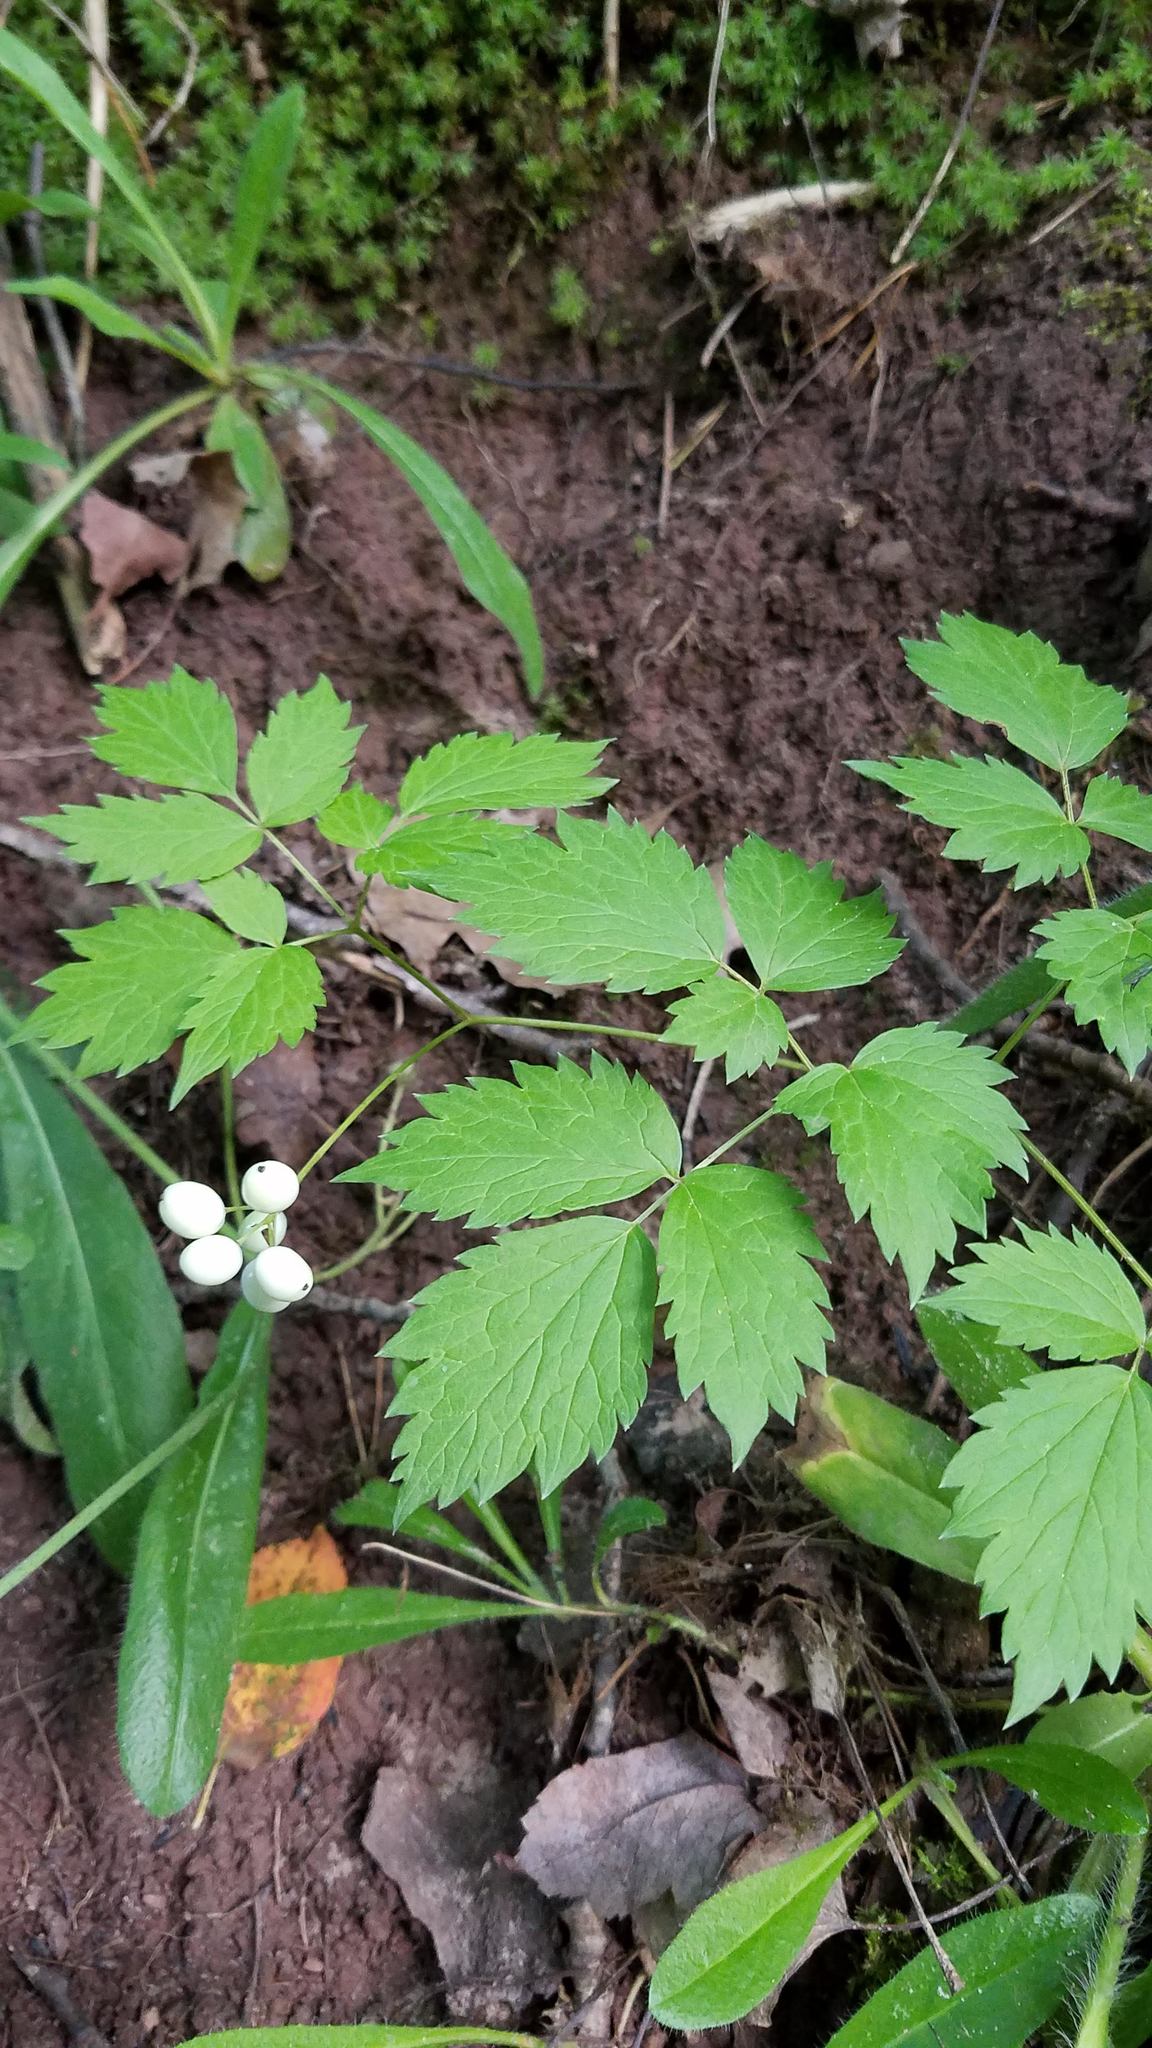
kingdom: Plantae
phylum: Tracheophyta
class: Magnoliopsida
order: Ranunculales
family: Ranunculaceae
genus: Actaea
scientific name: Actaea rubra
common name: Red baneberry
